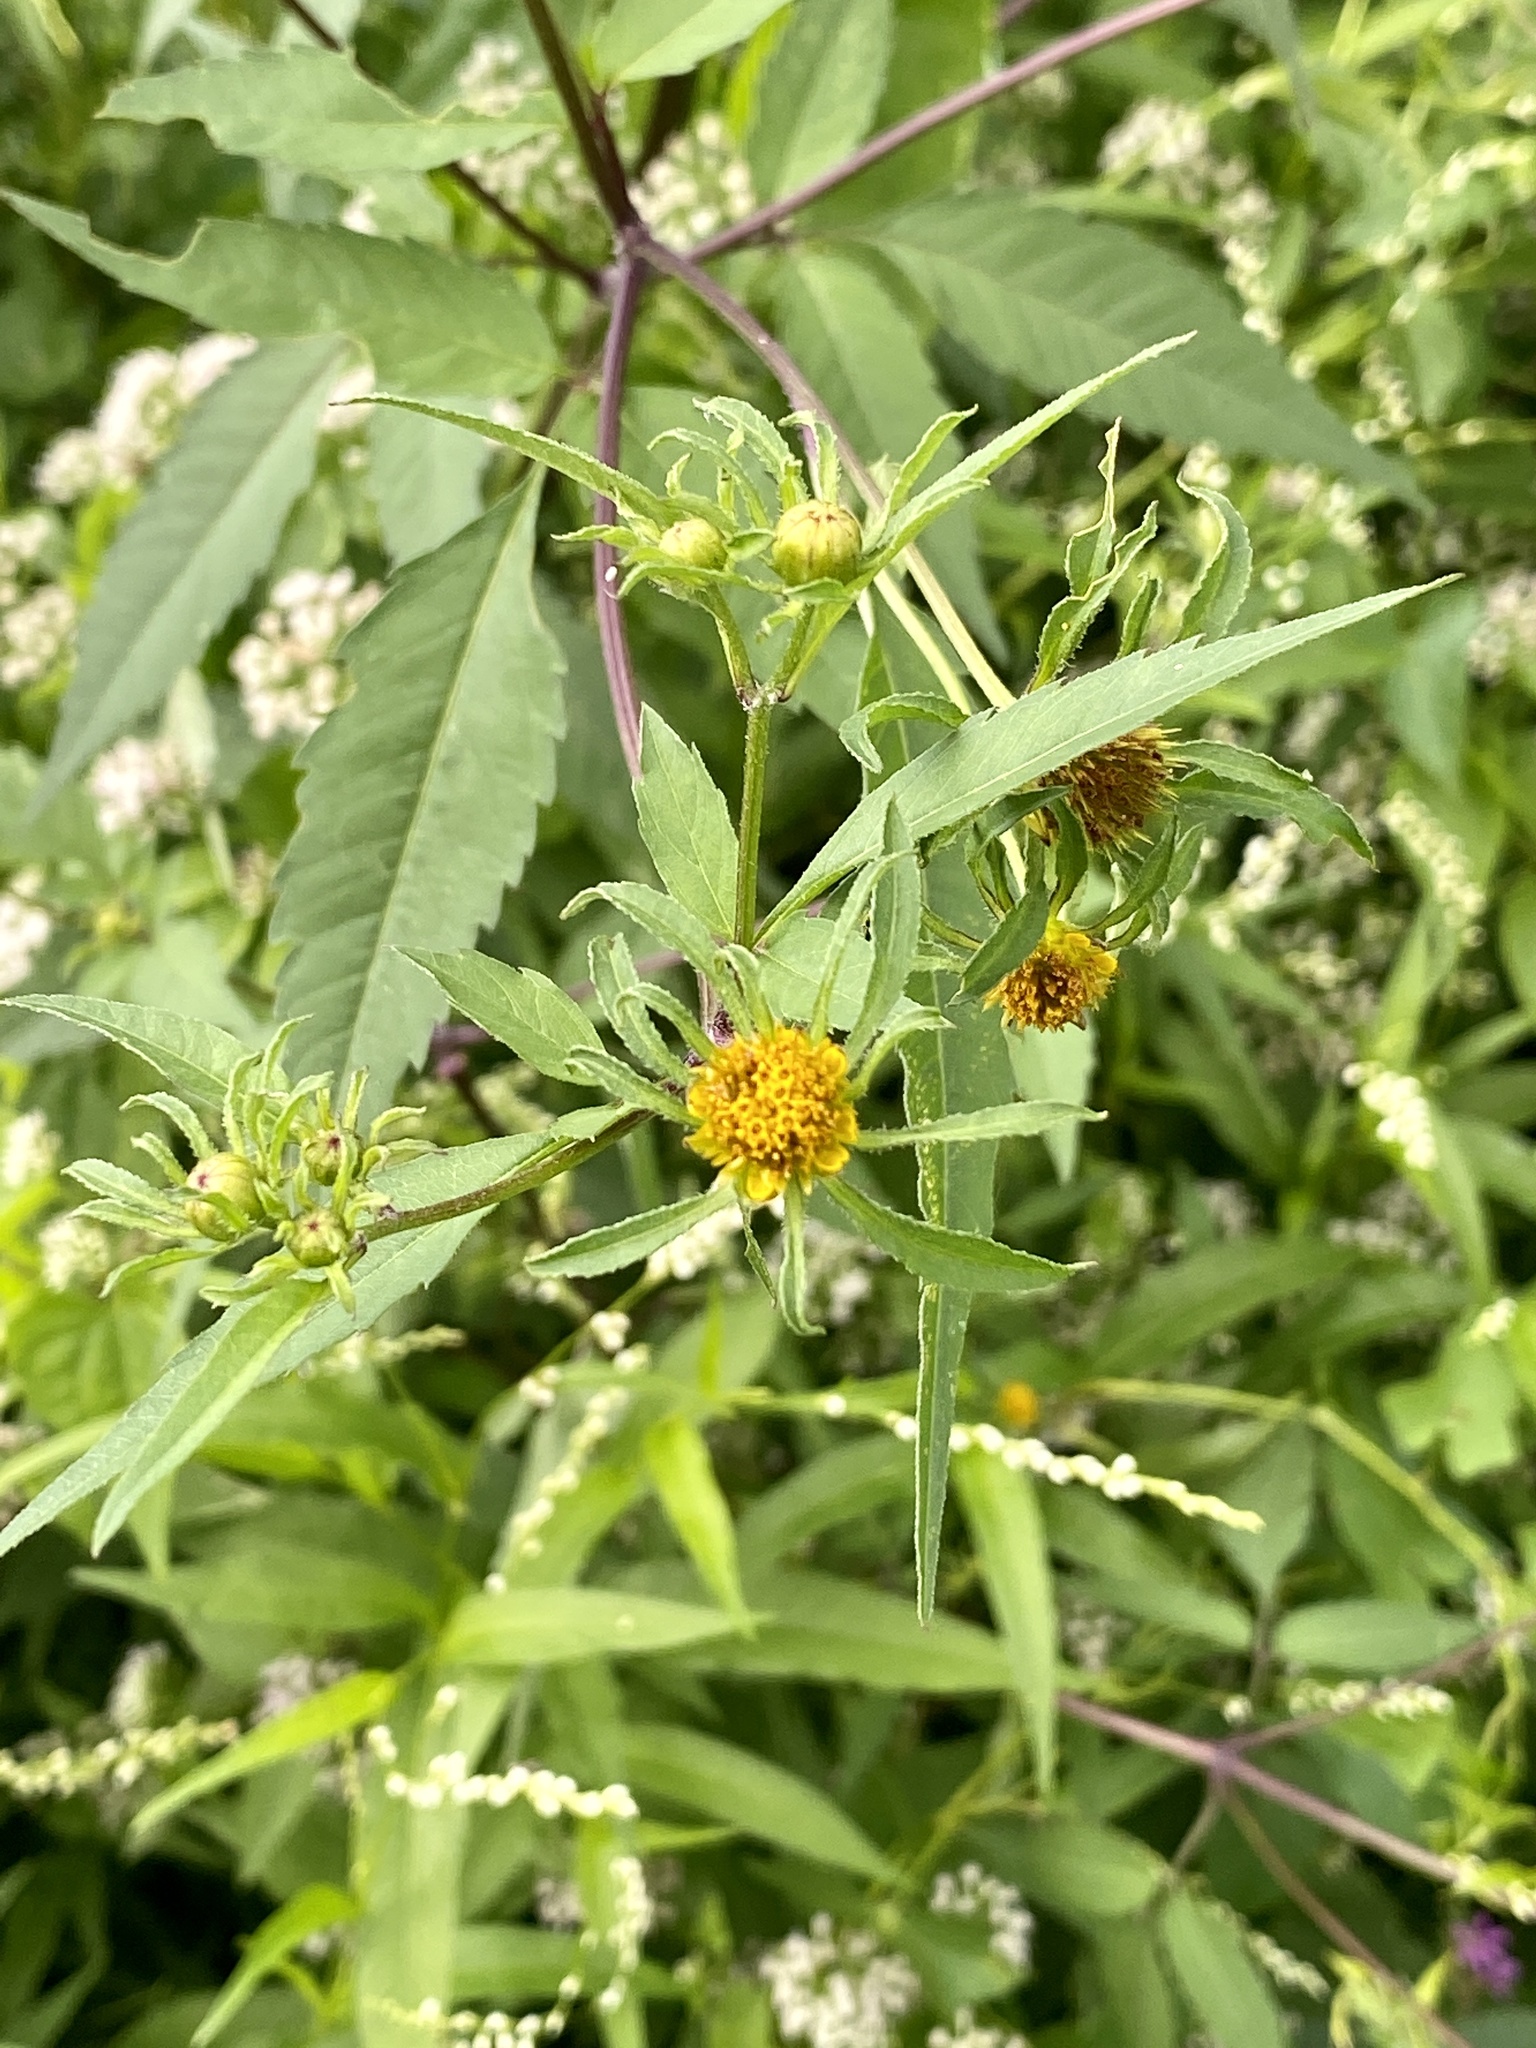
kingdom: Plantae
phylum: Tracheophyta
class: Magnoliopsida
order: Asterales
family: Asteraceae
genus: Bidens
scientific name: Bidens frondosa
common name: Beggarticks
